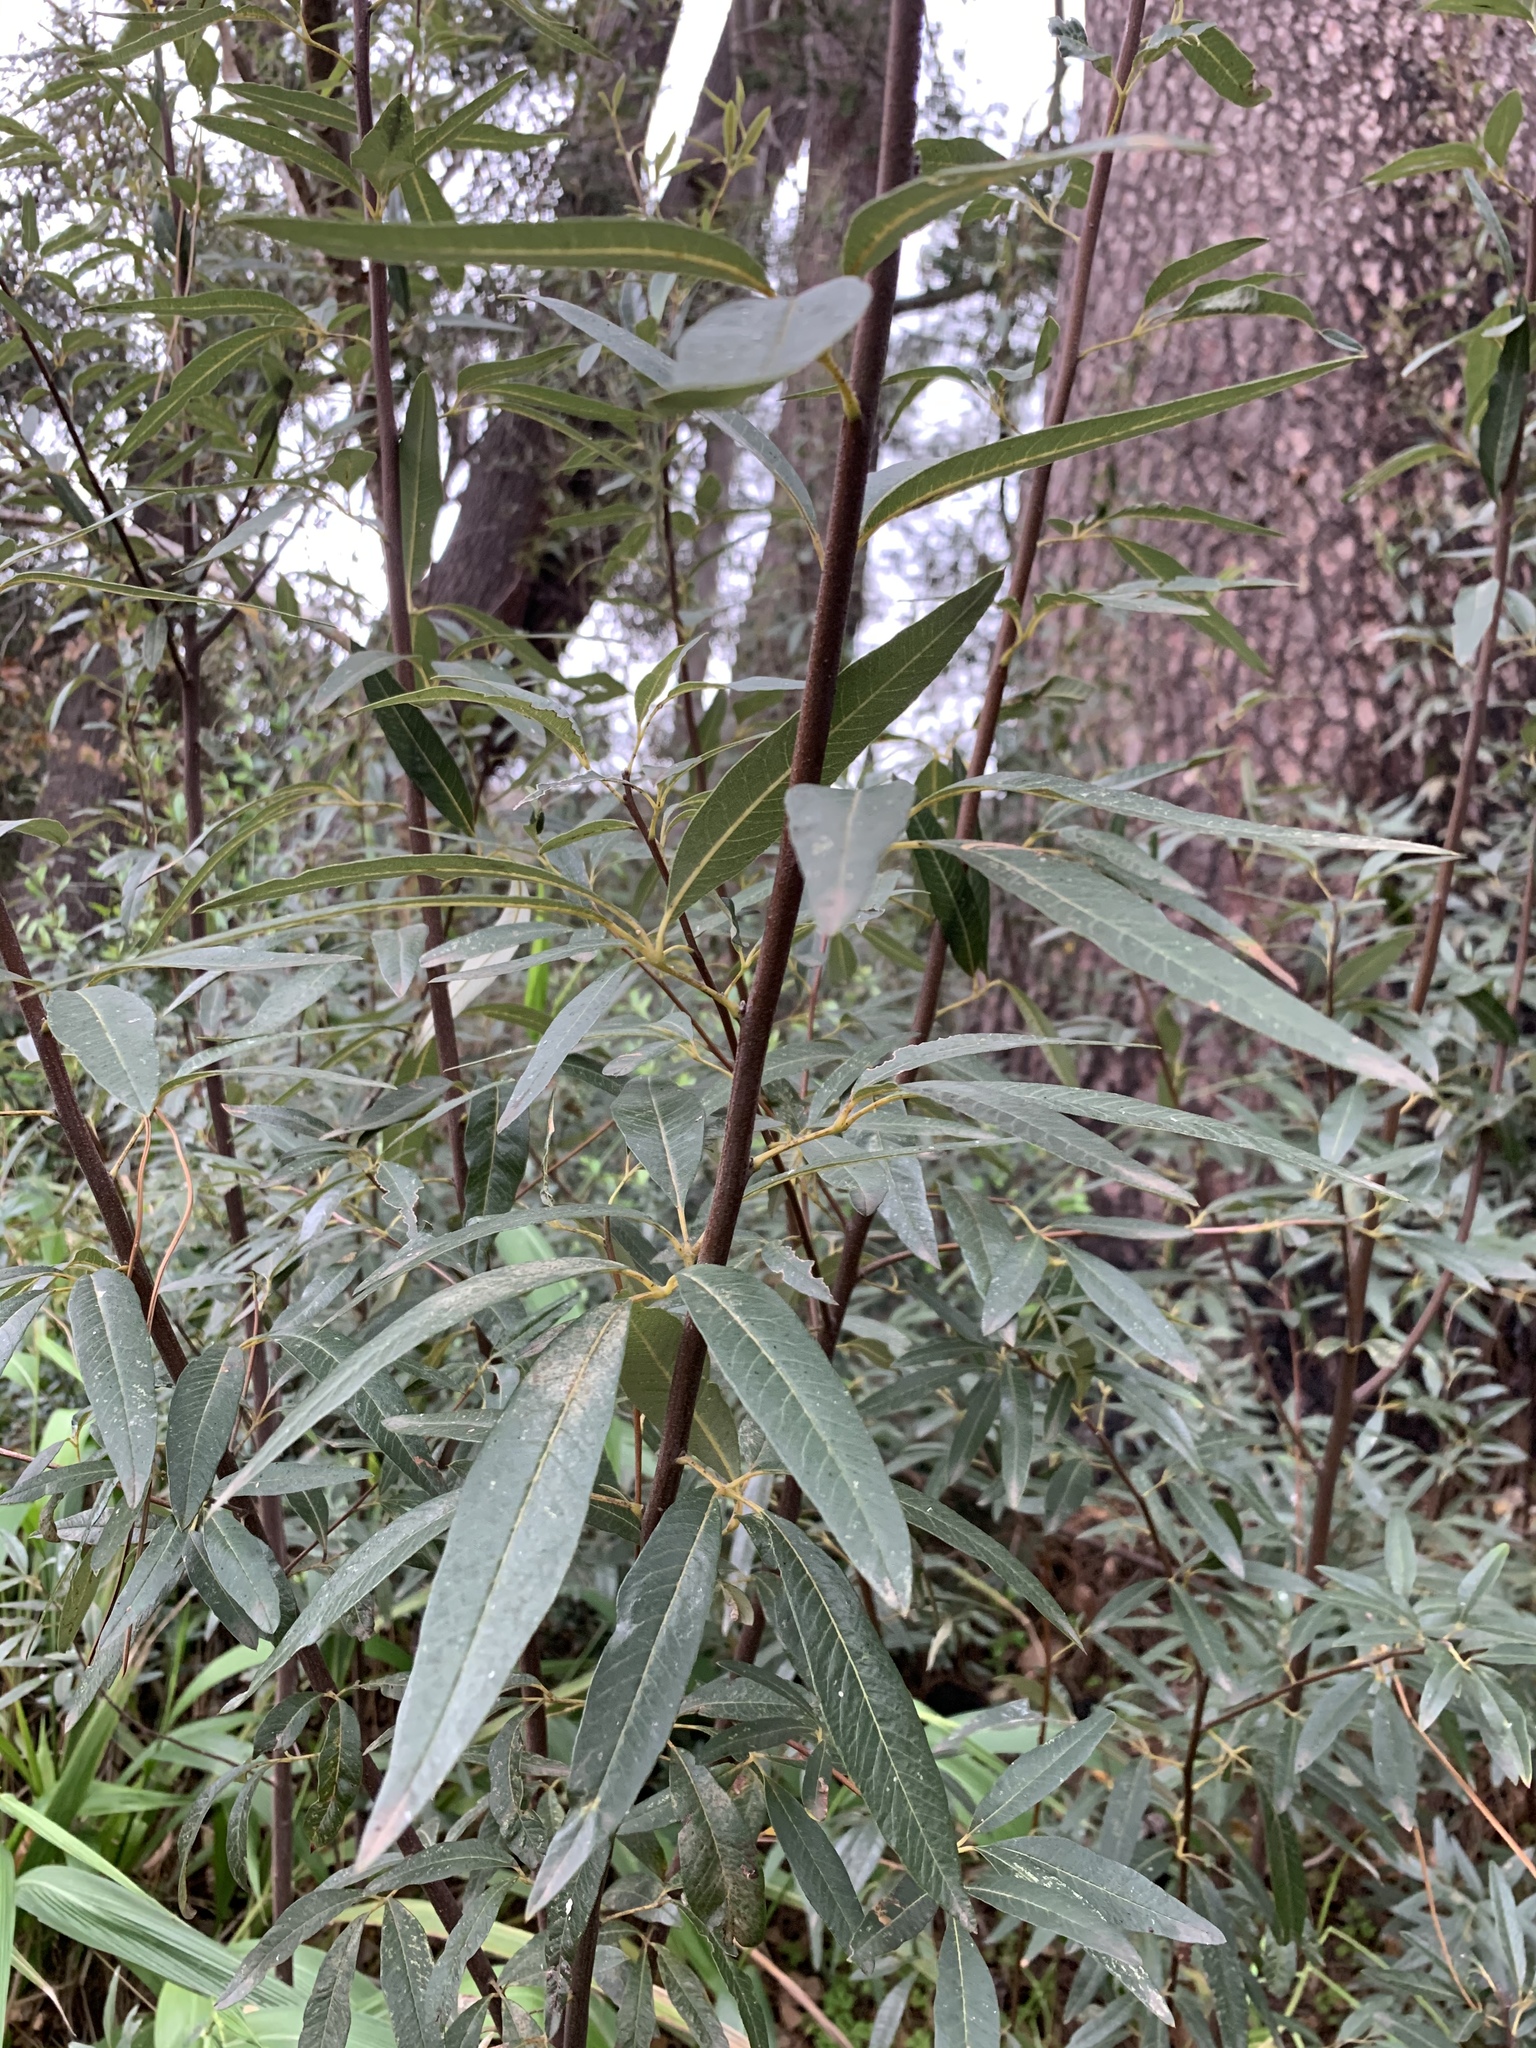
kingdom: Plantae
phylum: Tracheophyta
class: Magnoliopsida
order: Sapindales
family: Anacardiaceae
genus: Searsia
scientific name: Searsia angustifolia
